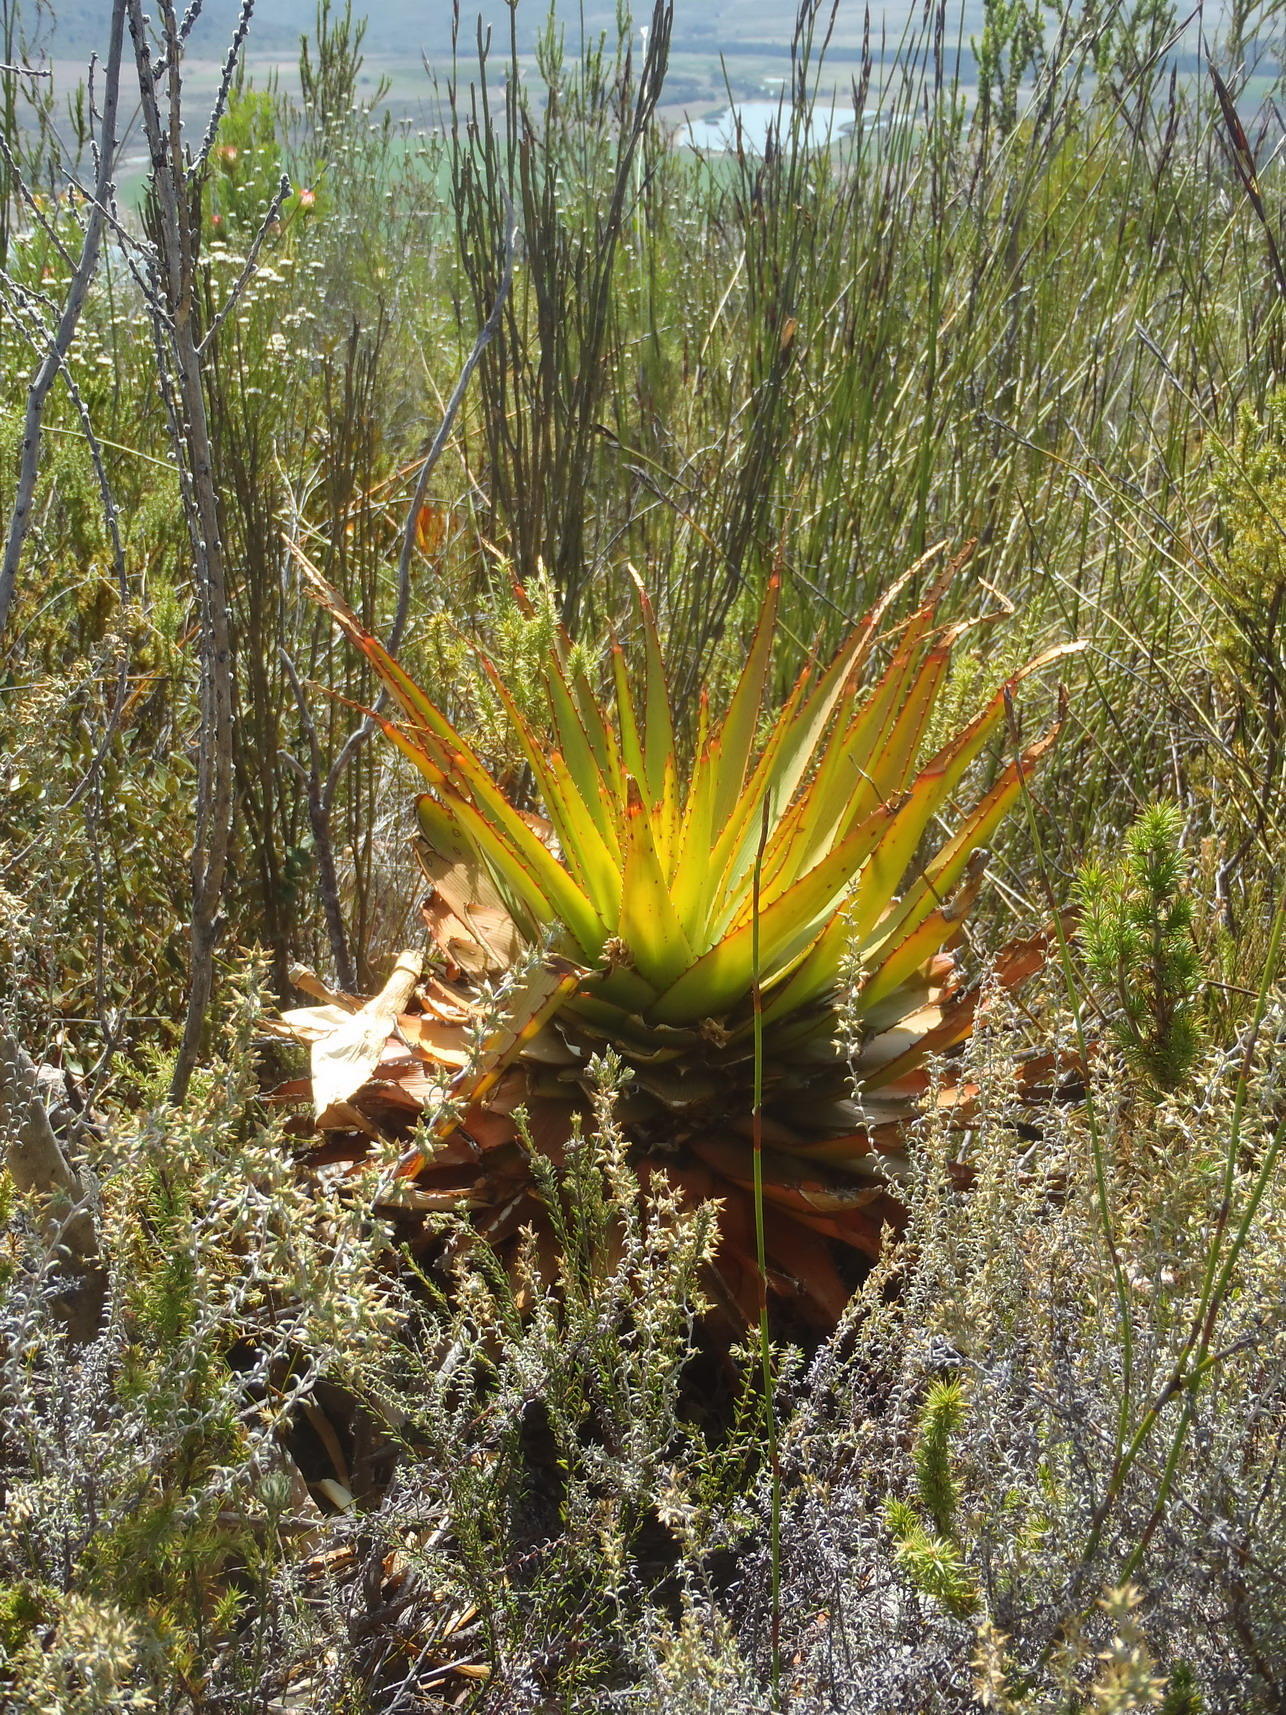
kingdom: Plantae
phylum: Tracheophyta
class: Liliopsida
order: Asparagales
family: Asphodelaceae
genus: Aloe
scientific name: Aloe lineata
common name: Lined red-spined aloe
